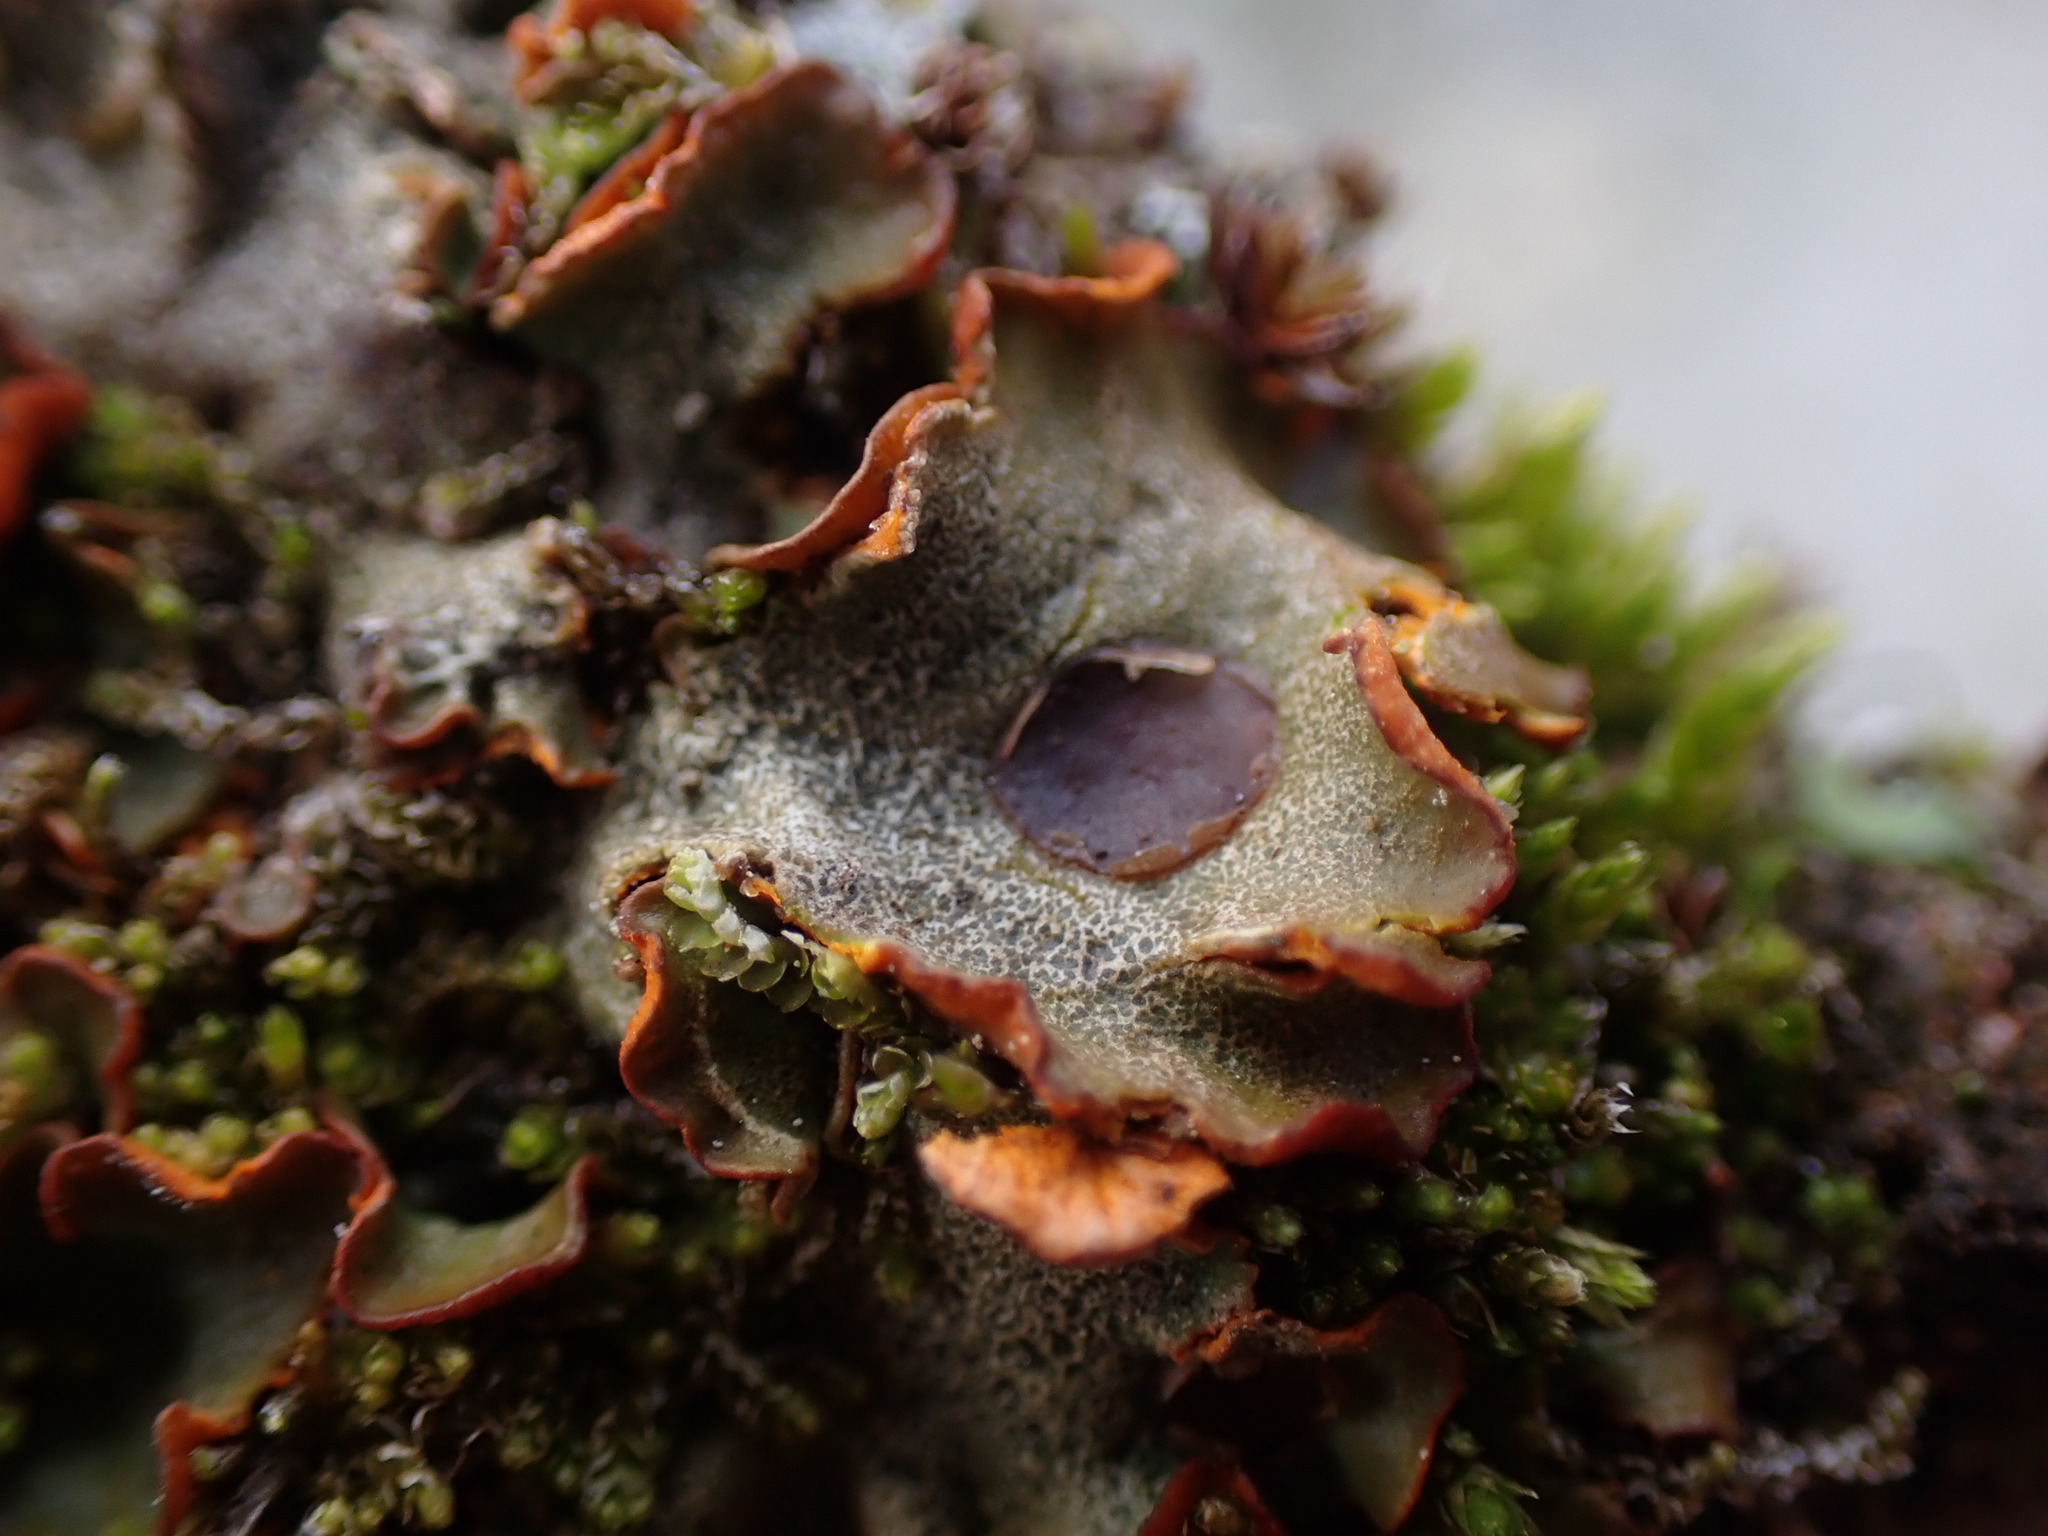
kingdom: Fungi
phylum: Ascomycota
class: Lecanoromycetes
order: Peltigerales
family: Peltigeraceae
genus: Solorina
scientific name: Solorina crocea
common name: Mountain saffron
